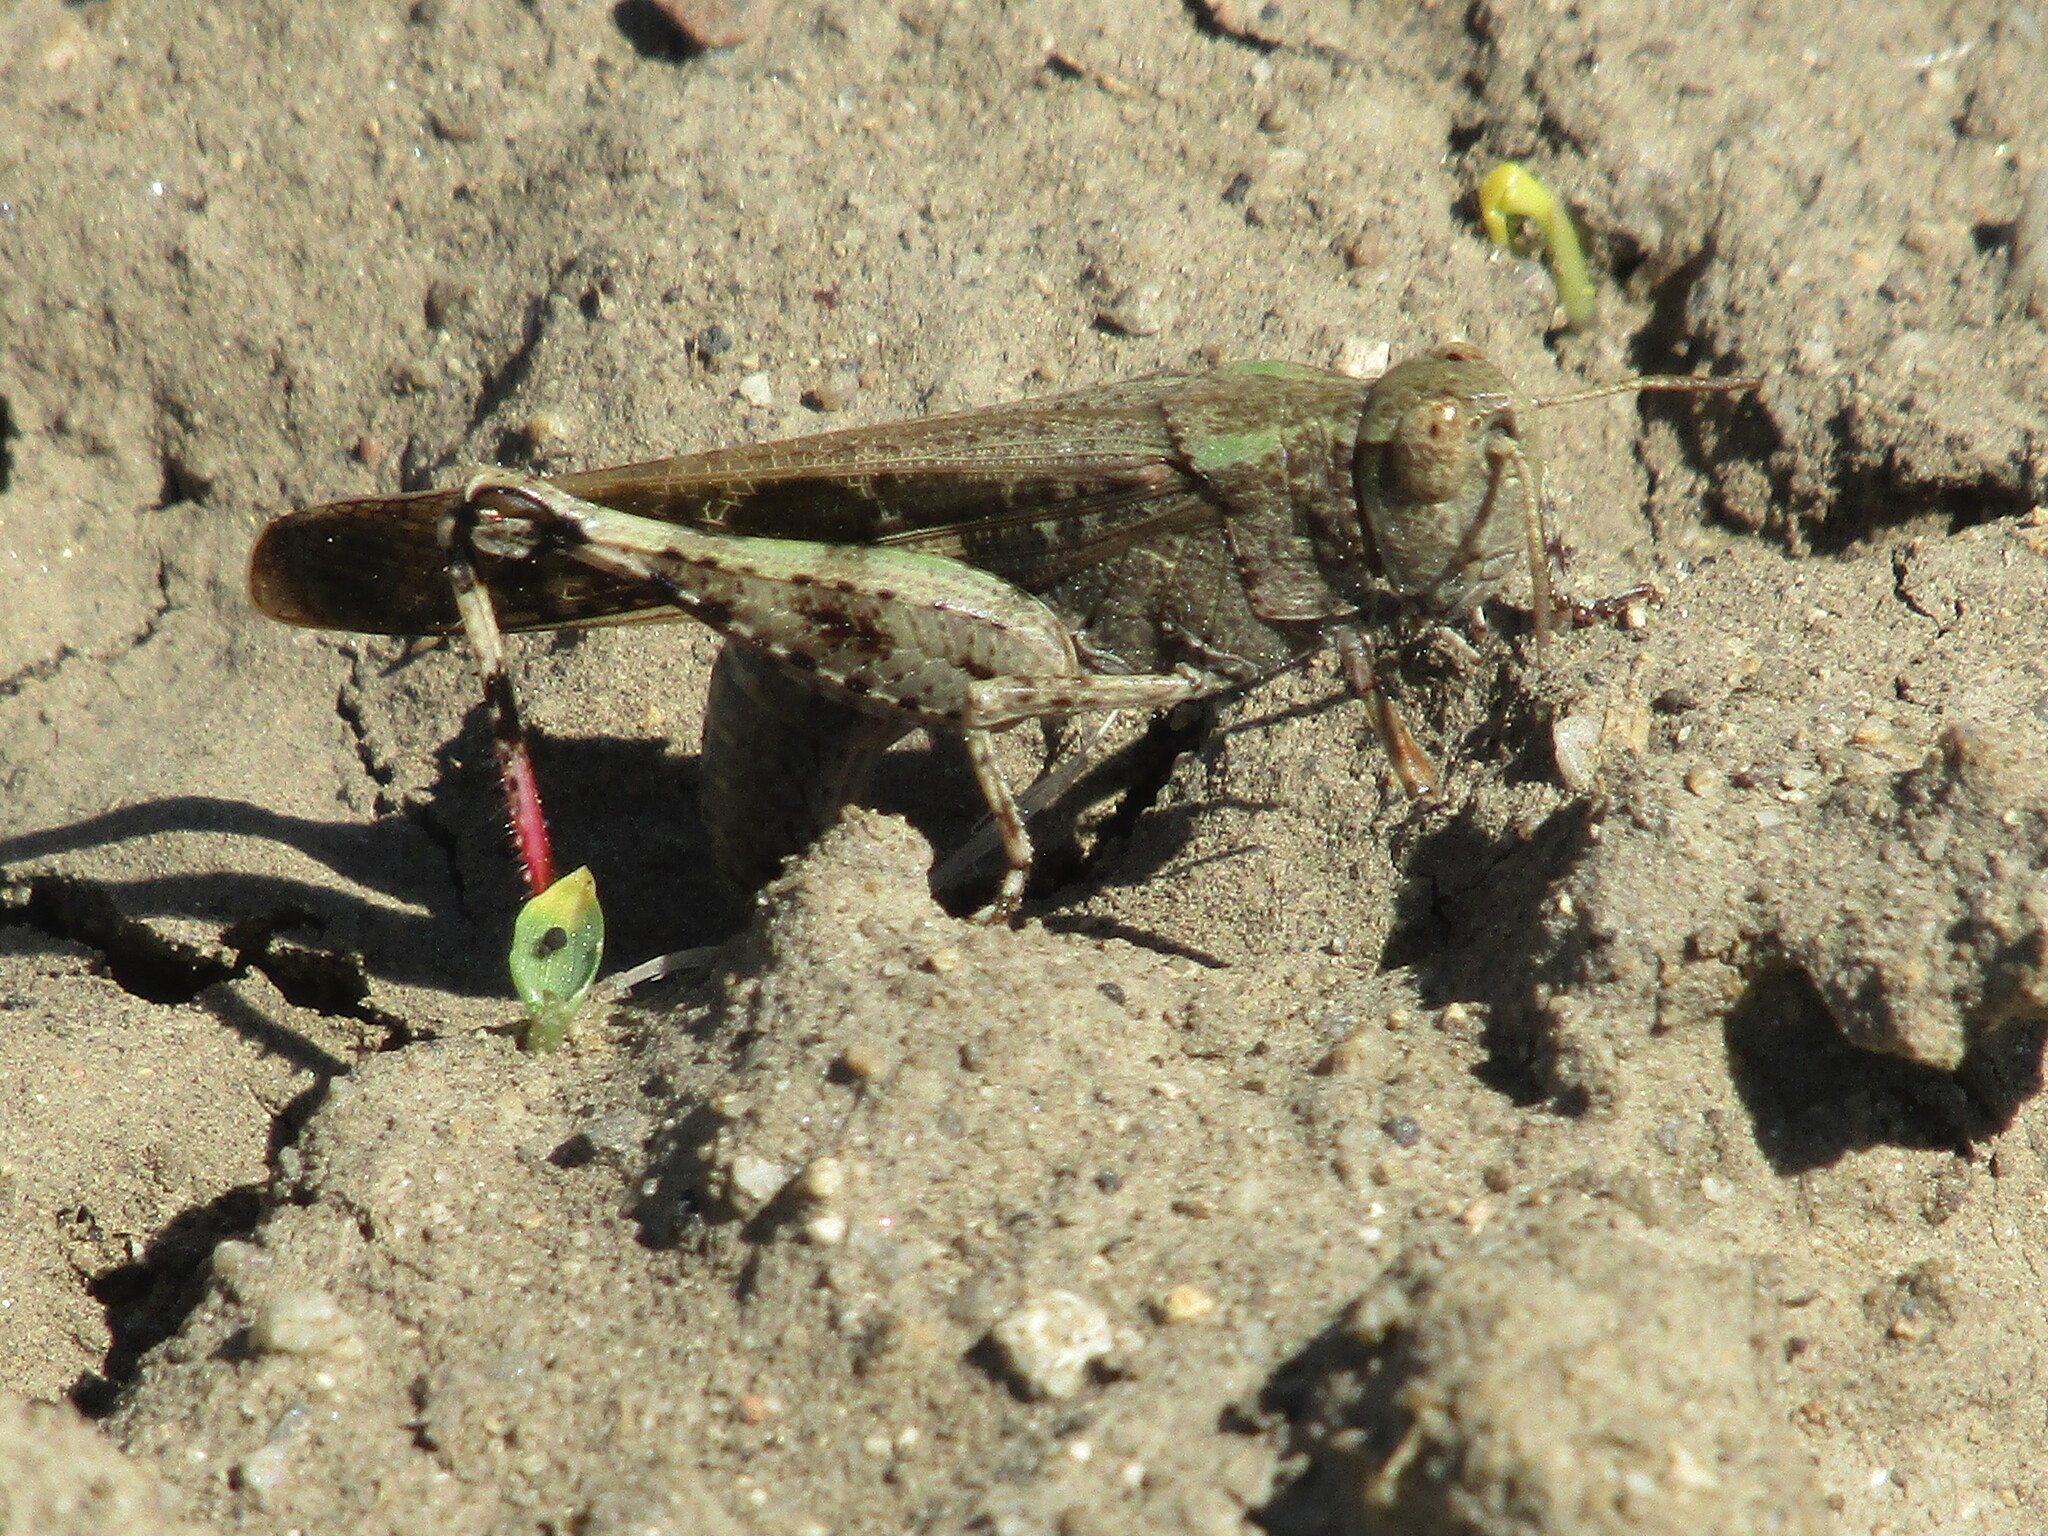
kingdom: Animalia
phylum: Arthropoda
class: Insecta
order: Orthoptera
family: Acrididae
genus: Aiolopus
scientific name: Aiolopus strepens
